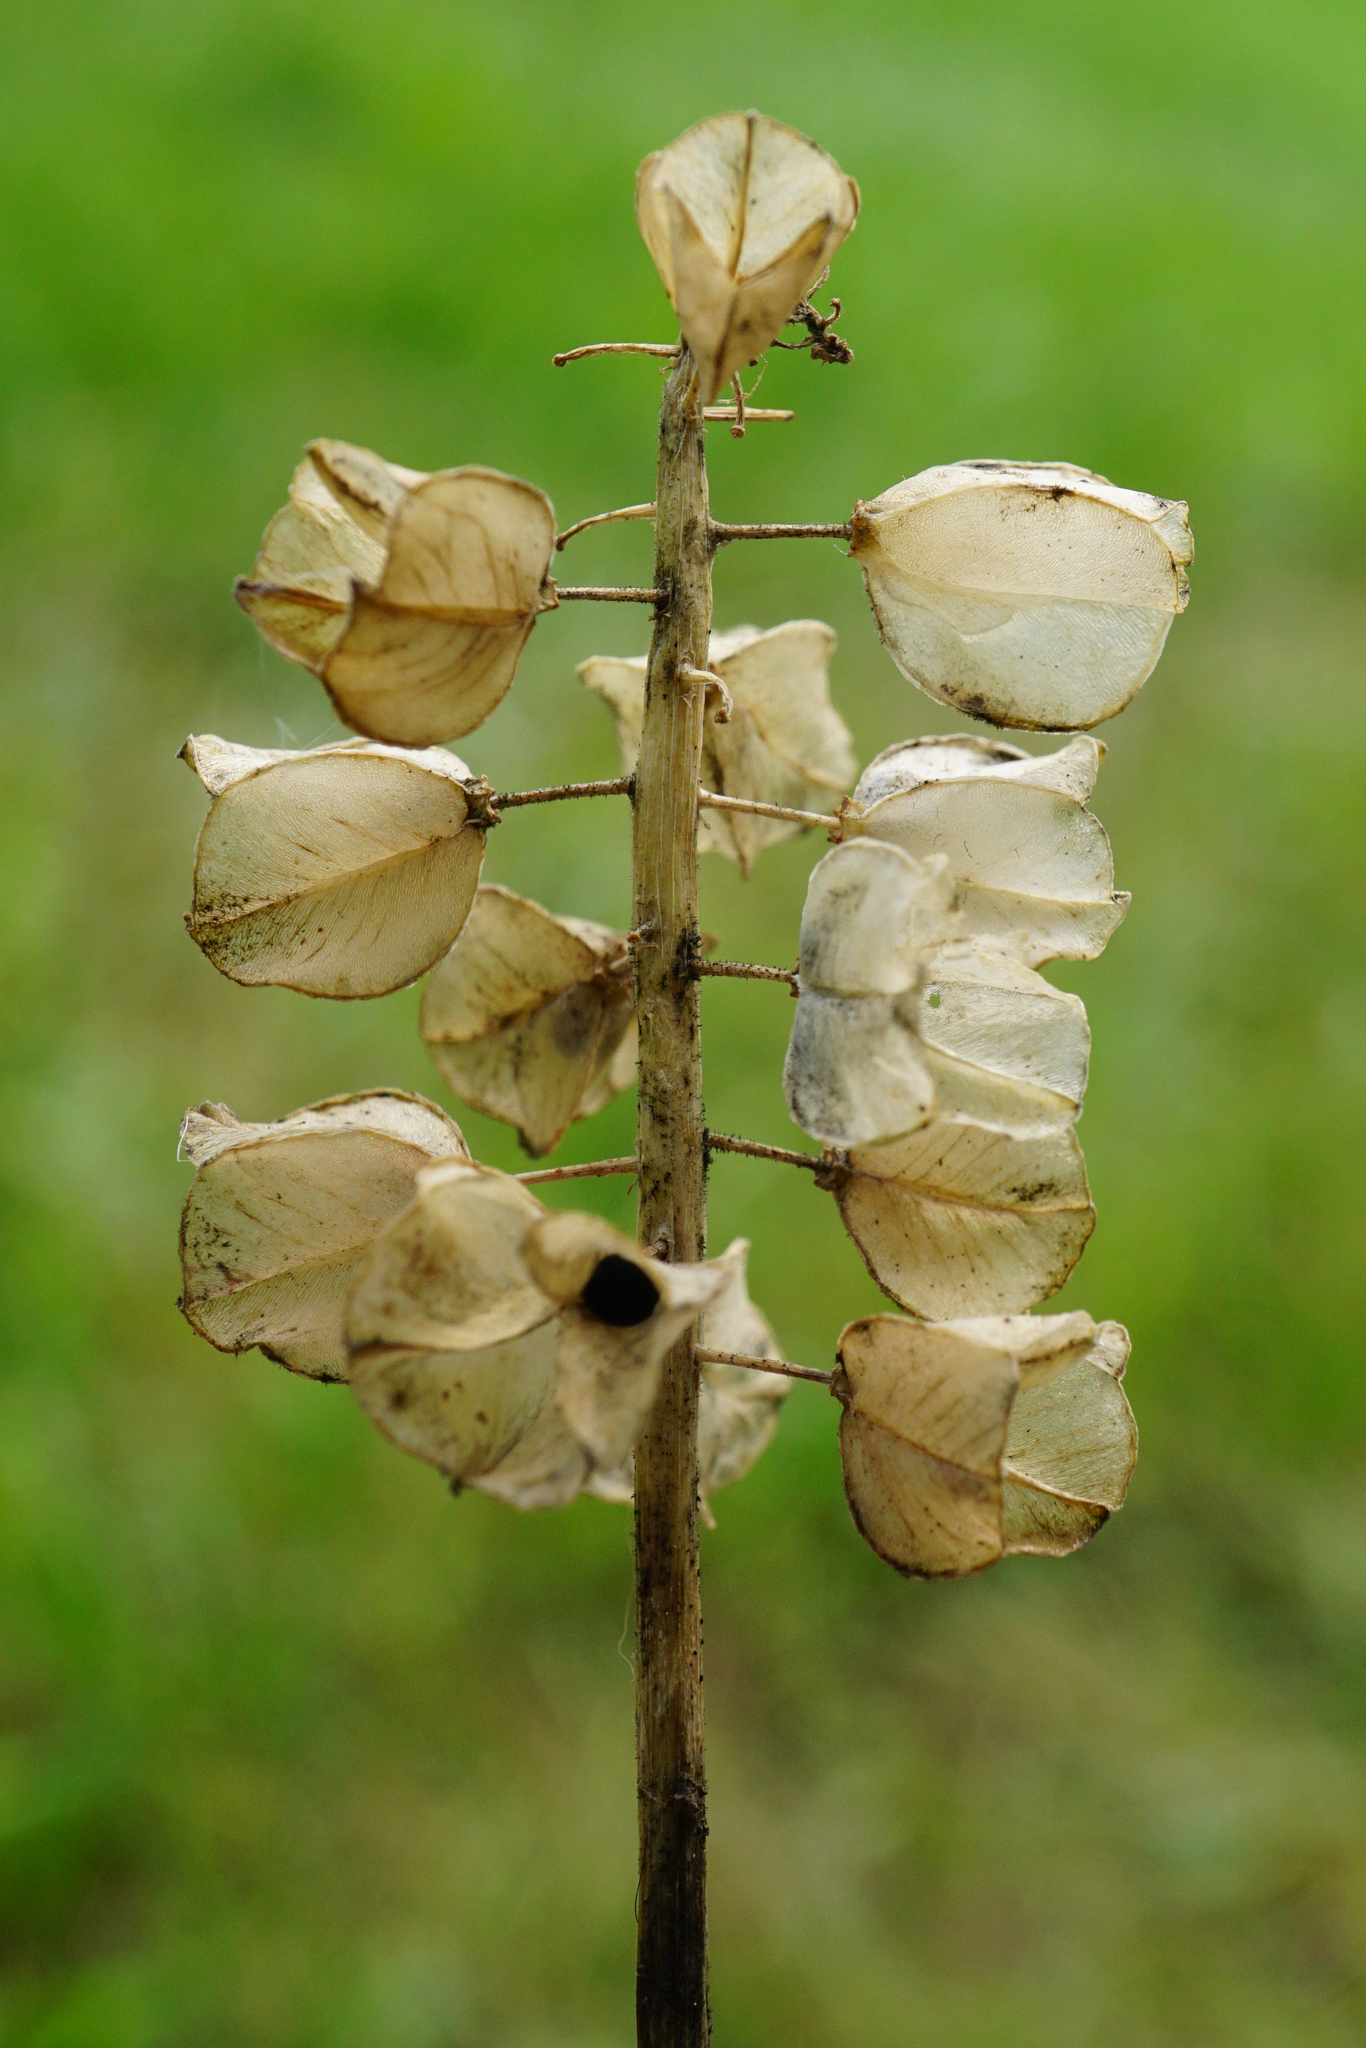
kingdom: Plantae
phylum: Tracheophyta
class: Liliopsida
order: Asparagales
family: Asparagaceae
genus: Muscari
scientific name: Muscari neglectum
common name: Grape-hyacinth
